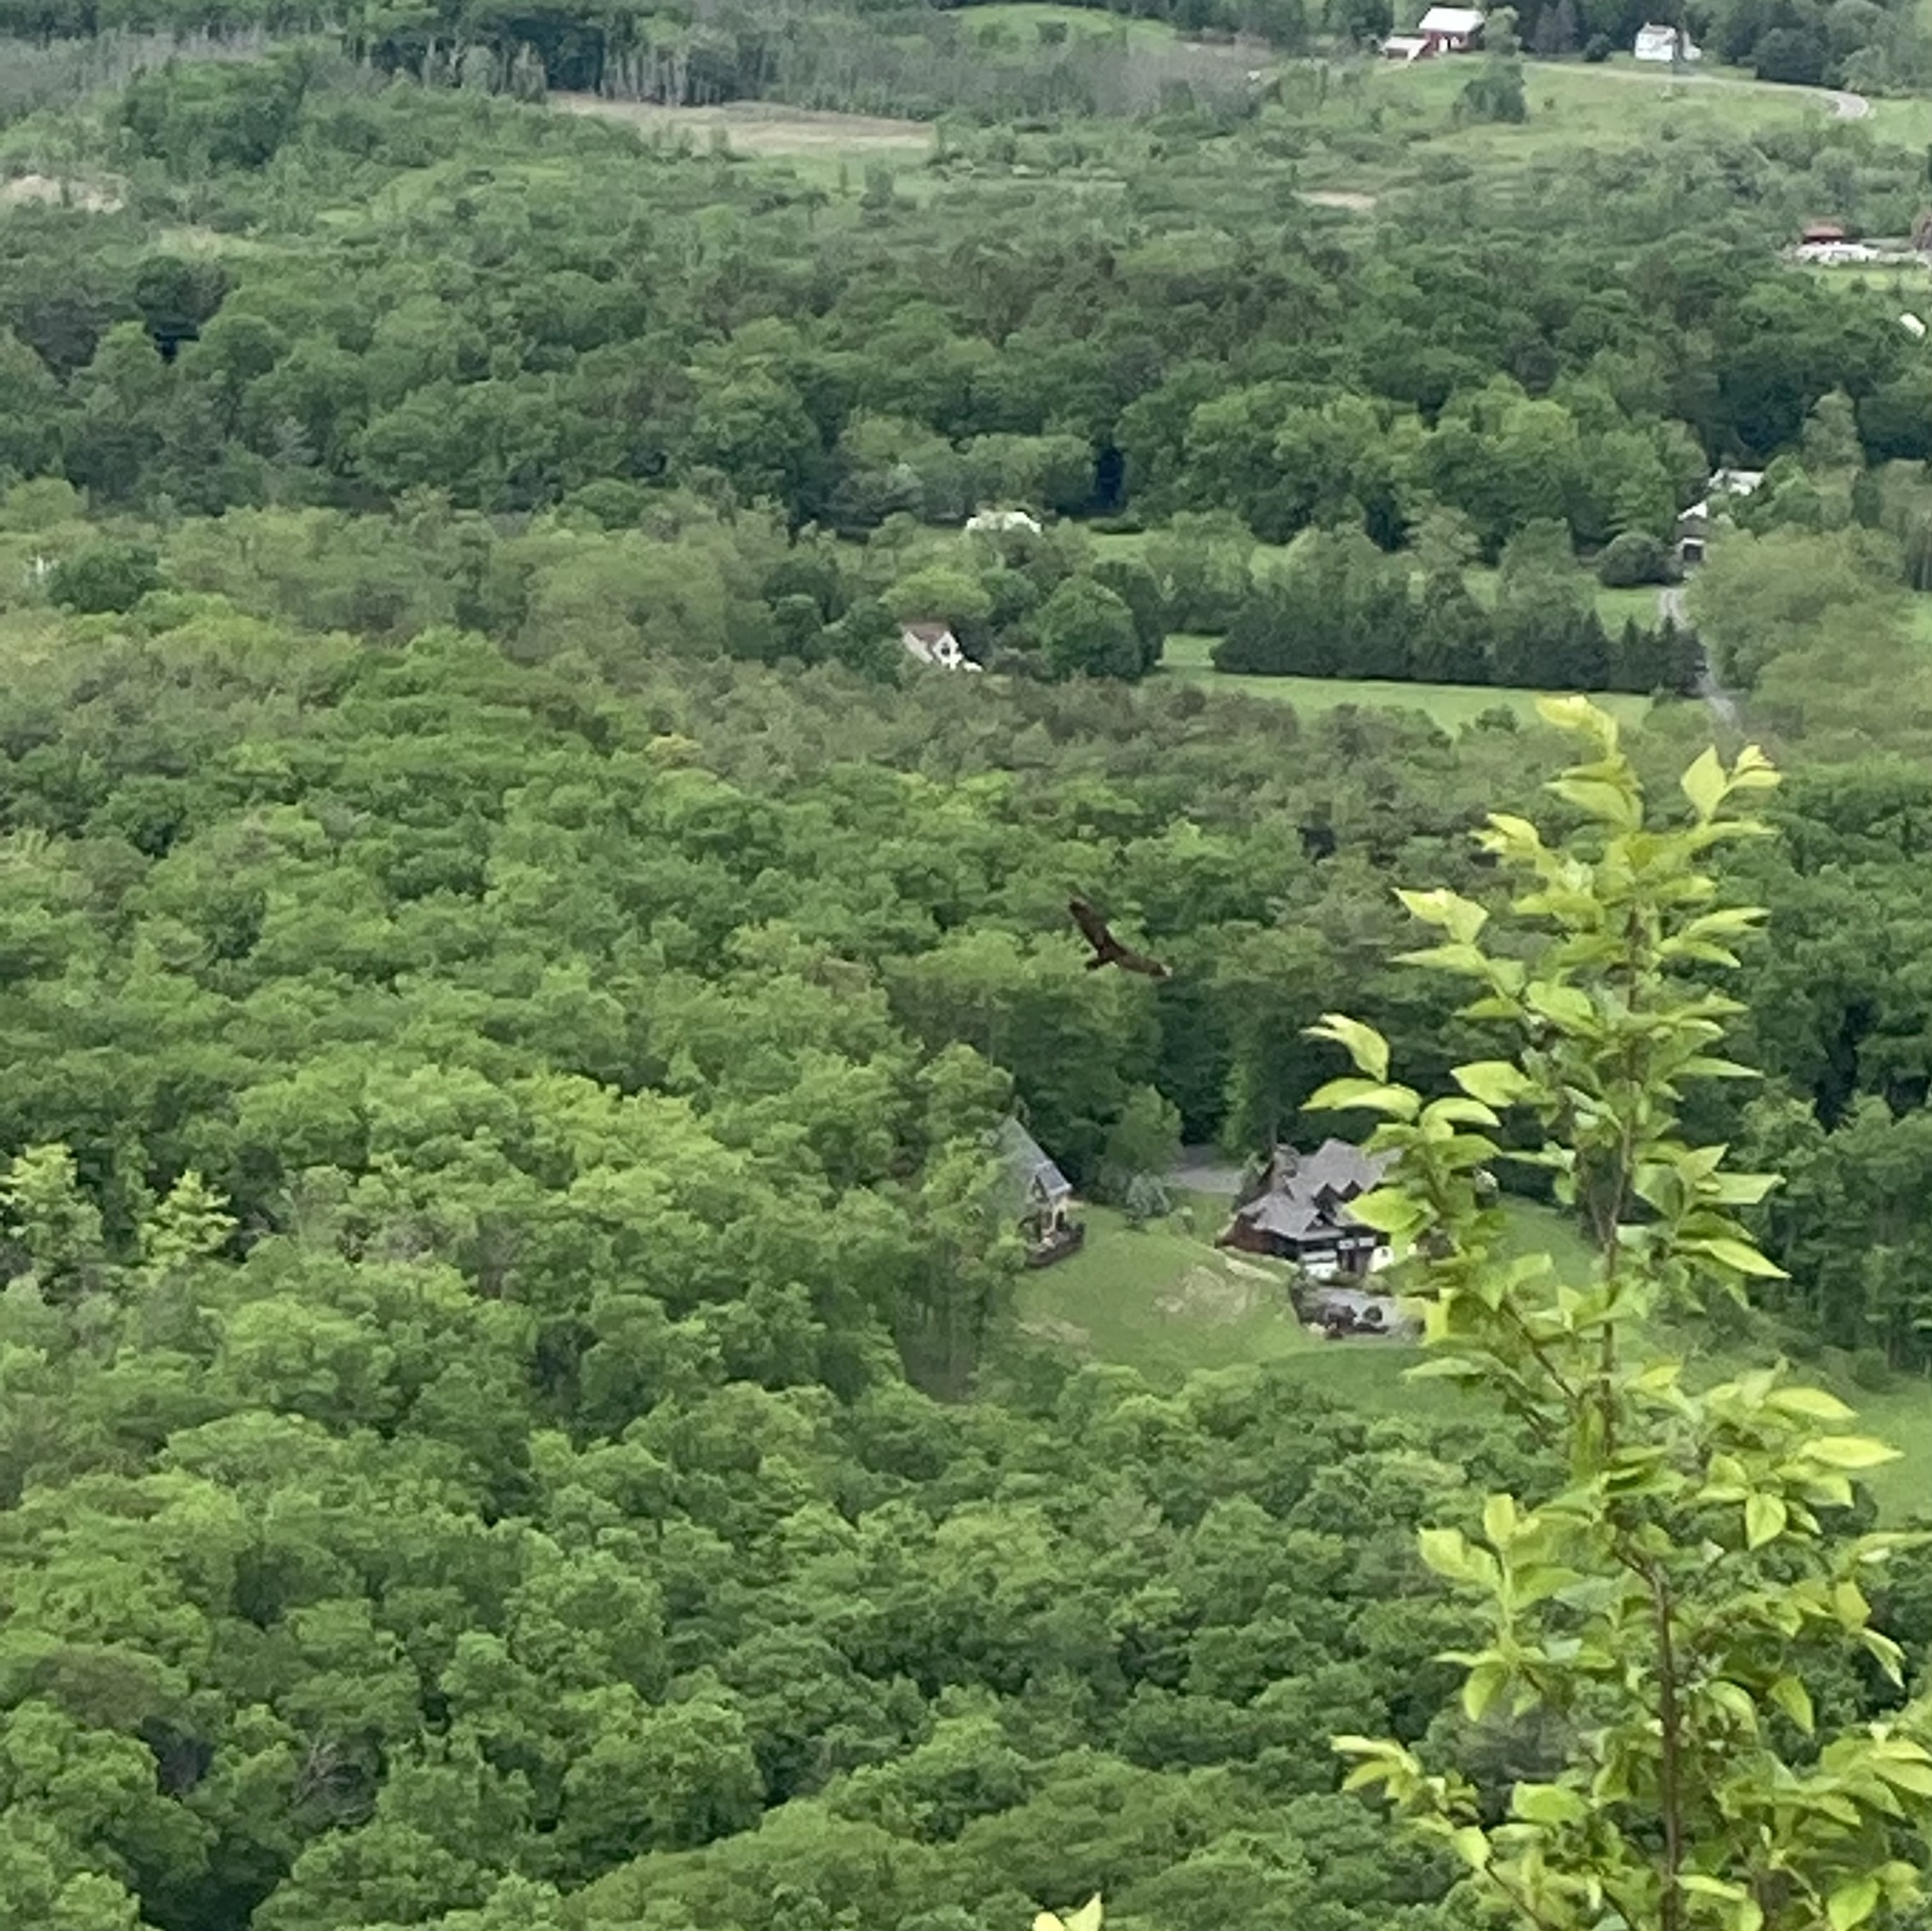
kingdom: Animalia
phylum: Chordata
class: Aves
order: Accipitriformes
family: Cathartidae
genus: Cathartes
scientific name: Cathartes aura
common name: Turkey vulture
